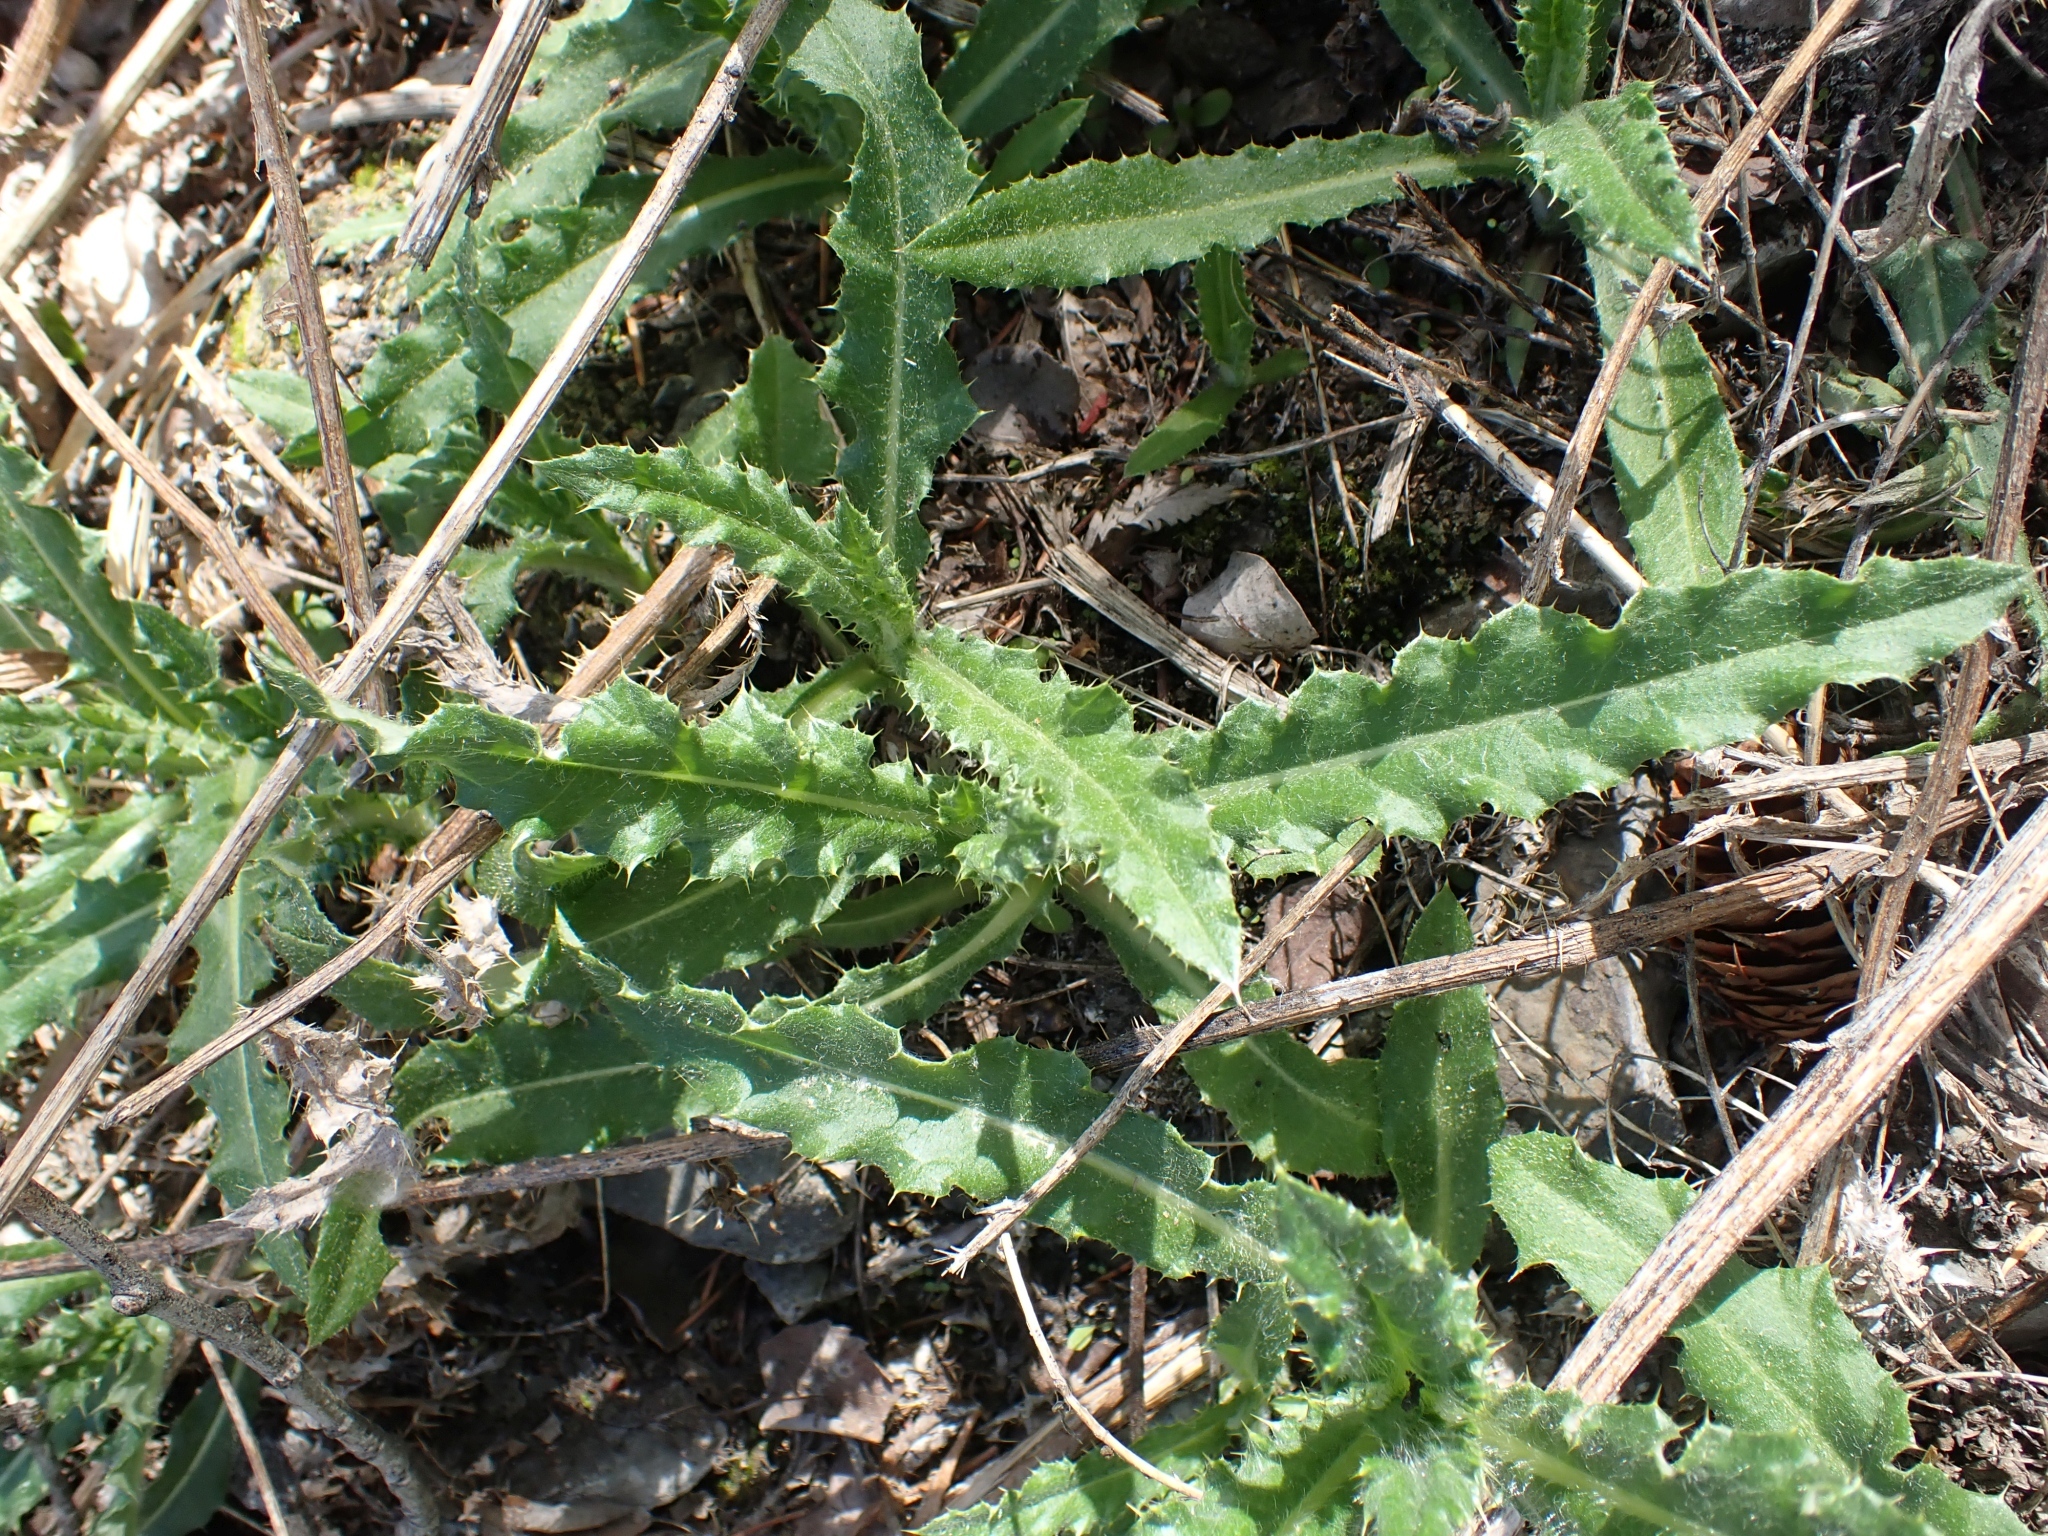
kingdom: Plantae
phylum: Tracheophyta
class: Magnoliopsida
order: Asterales
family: Asteraceae
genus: Cirsium
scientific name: Cirsium arvense
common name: Creeping thistle
